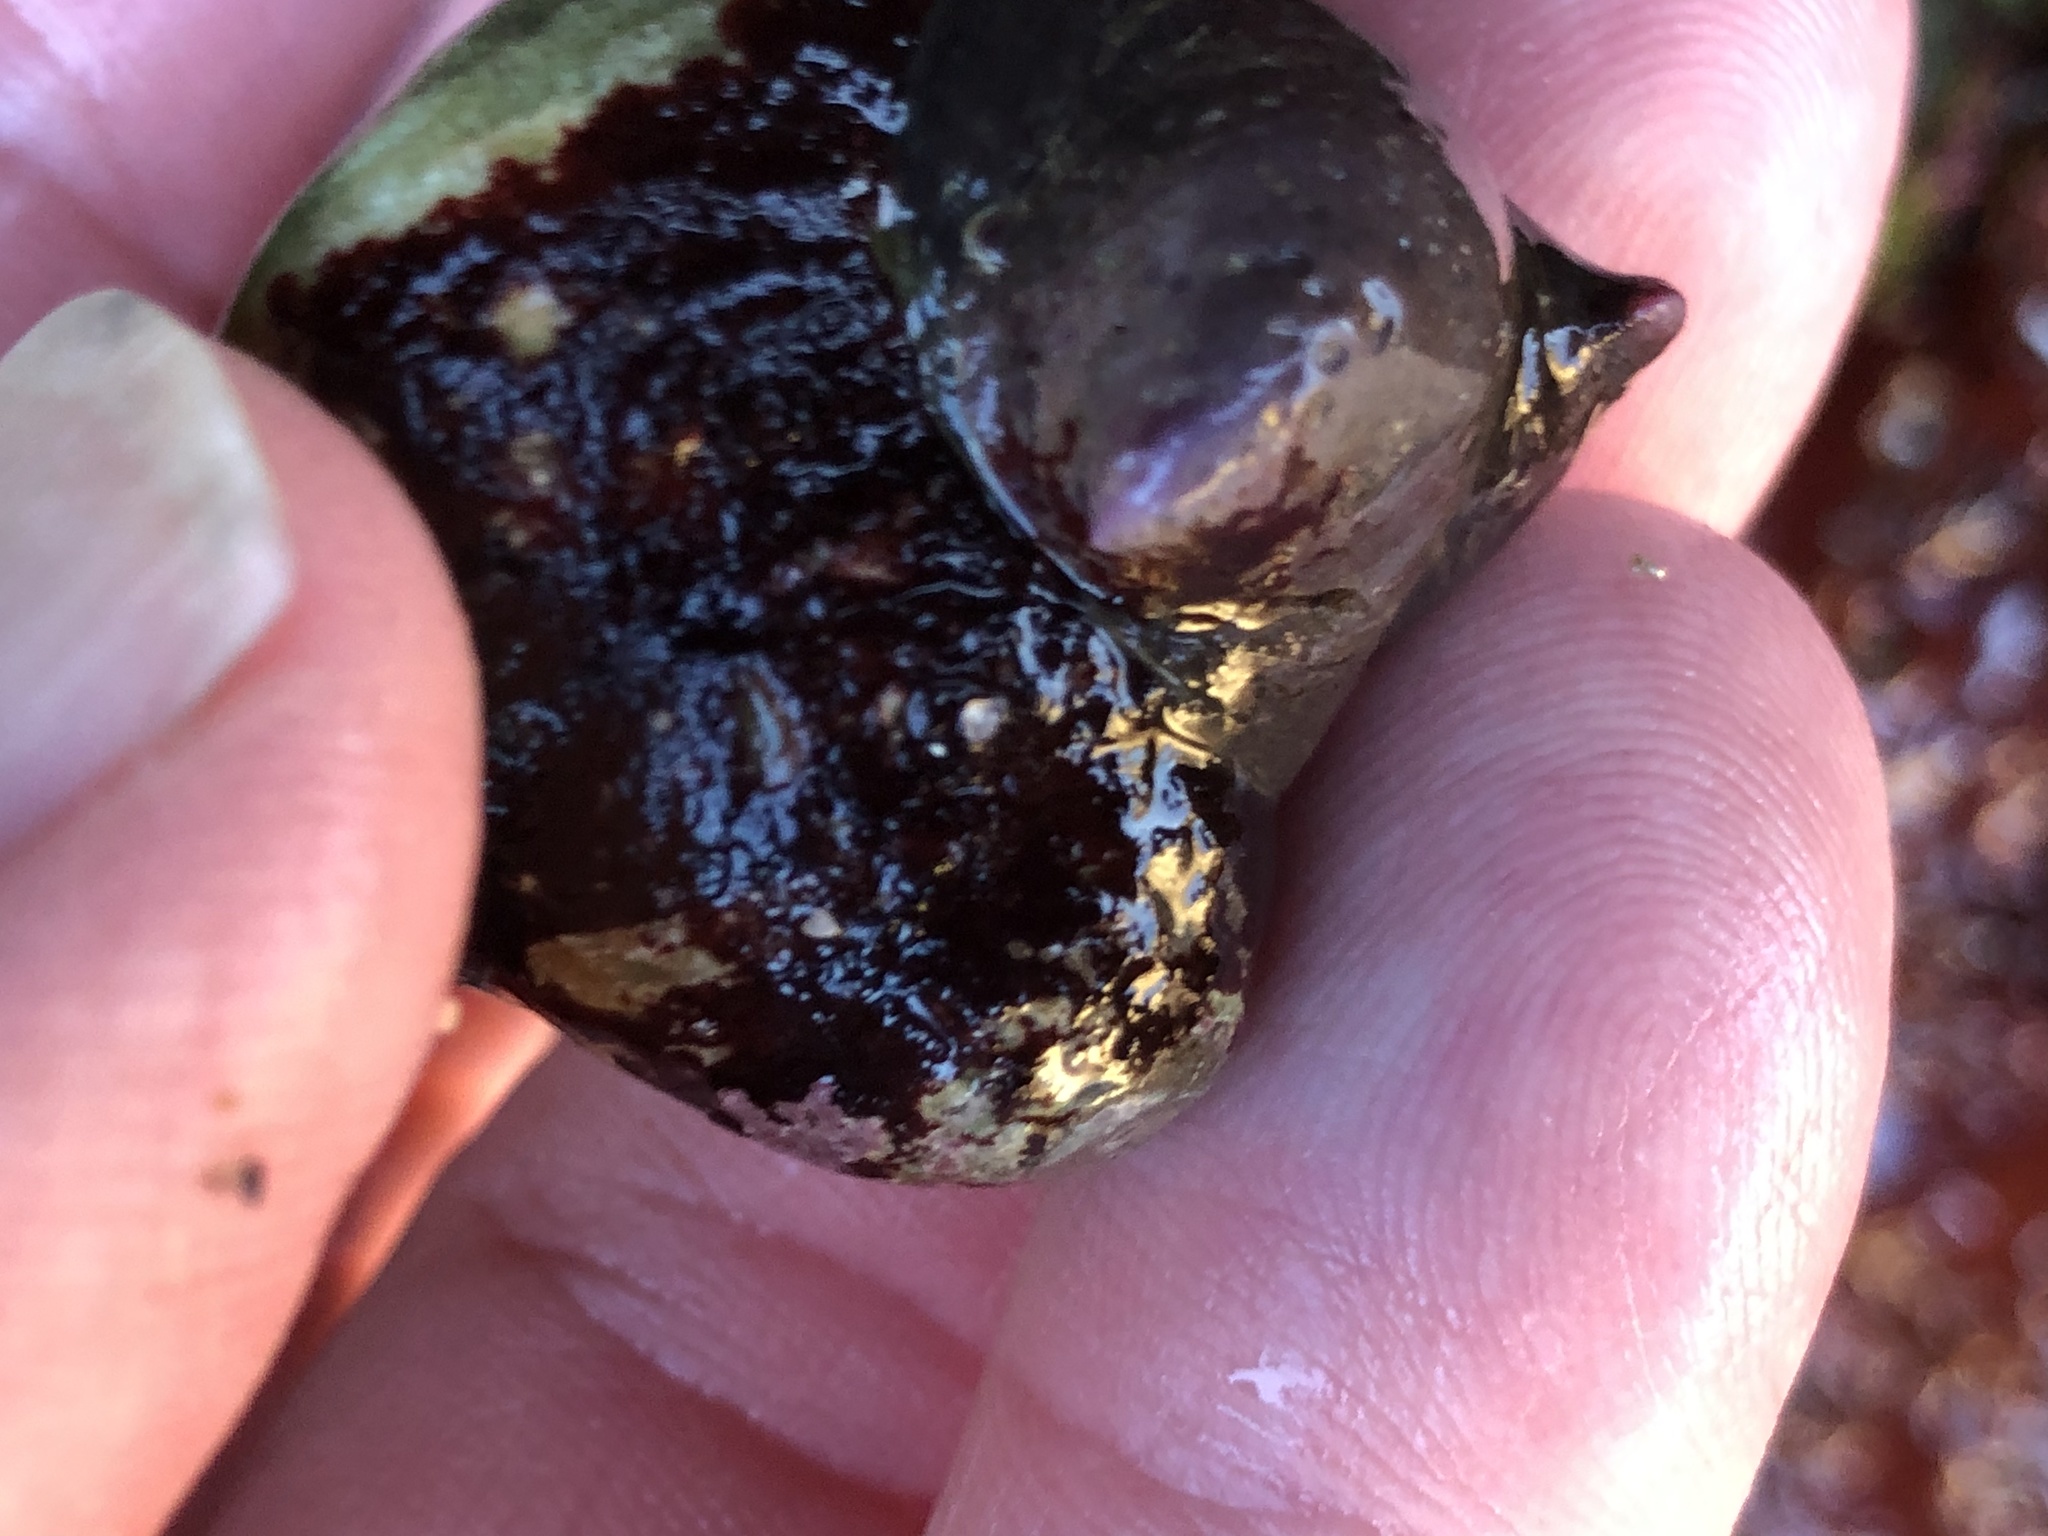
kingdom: Animalia
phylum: Mollusca
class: Gastropoda
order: Littorinimorpha
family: Calyptraeidae
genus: Crepidula
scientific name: Crepidula adunca
